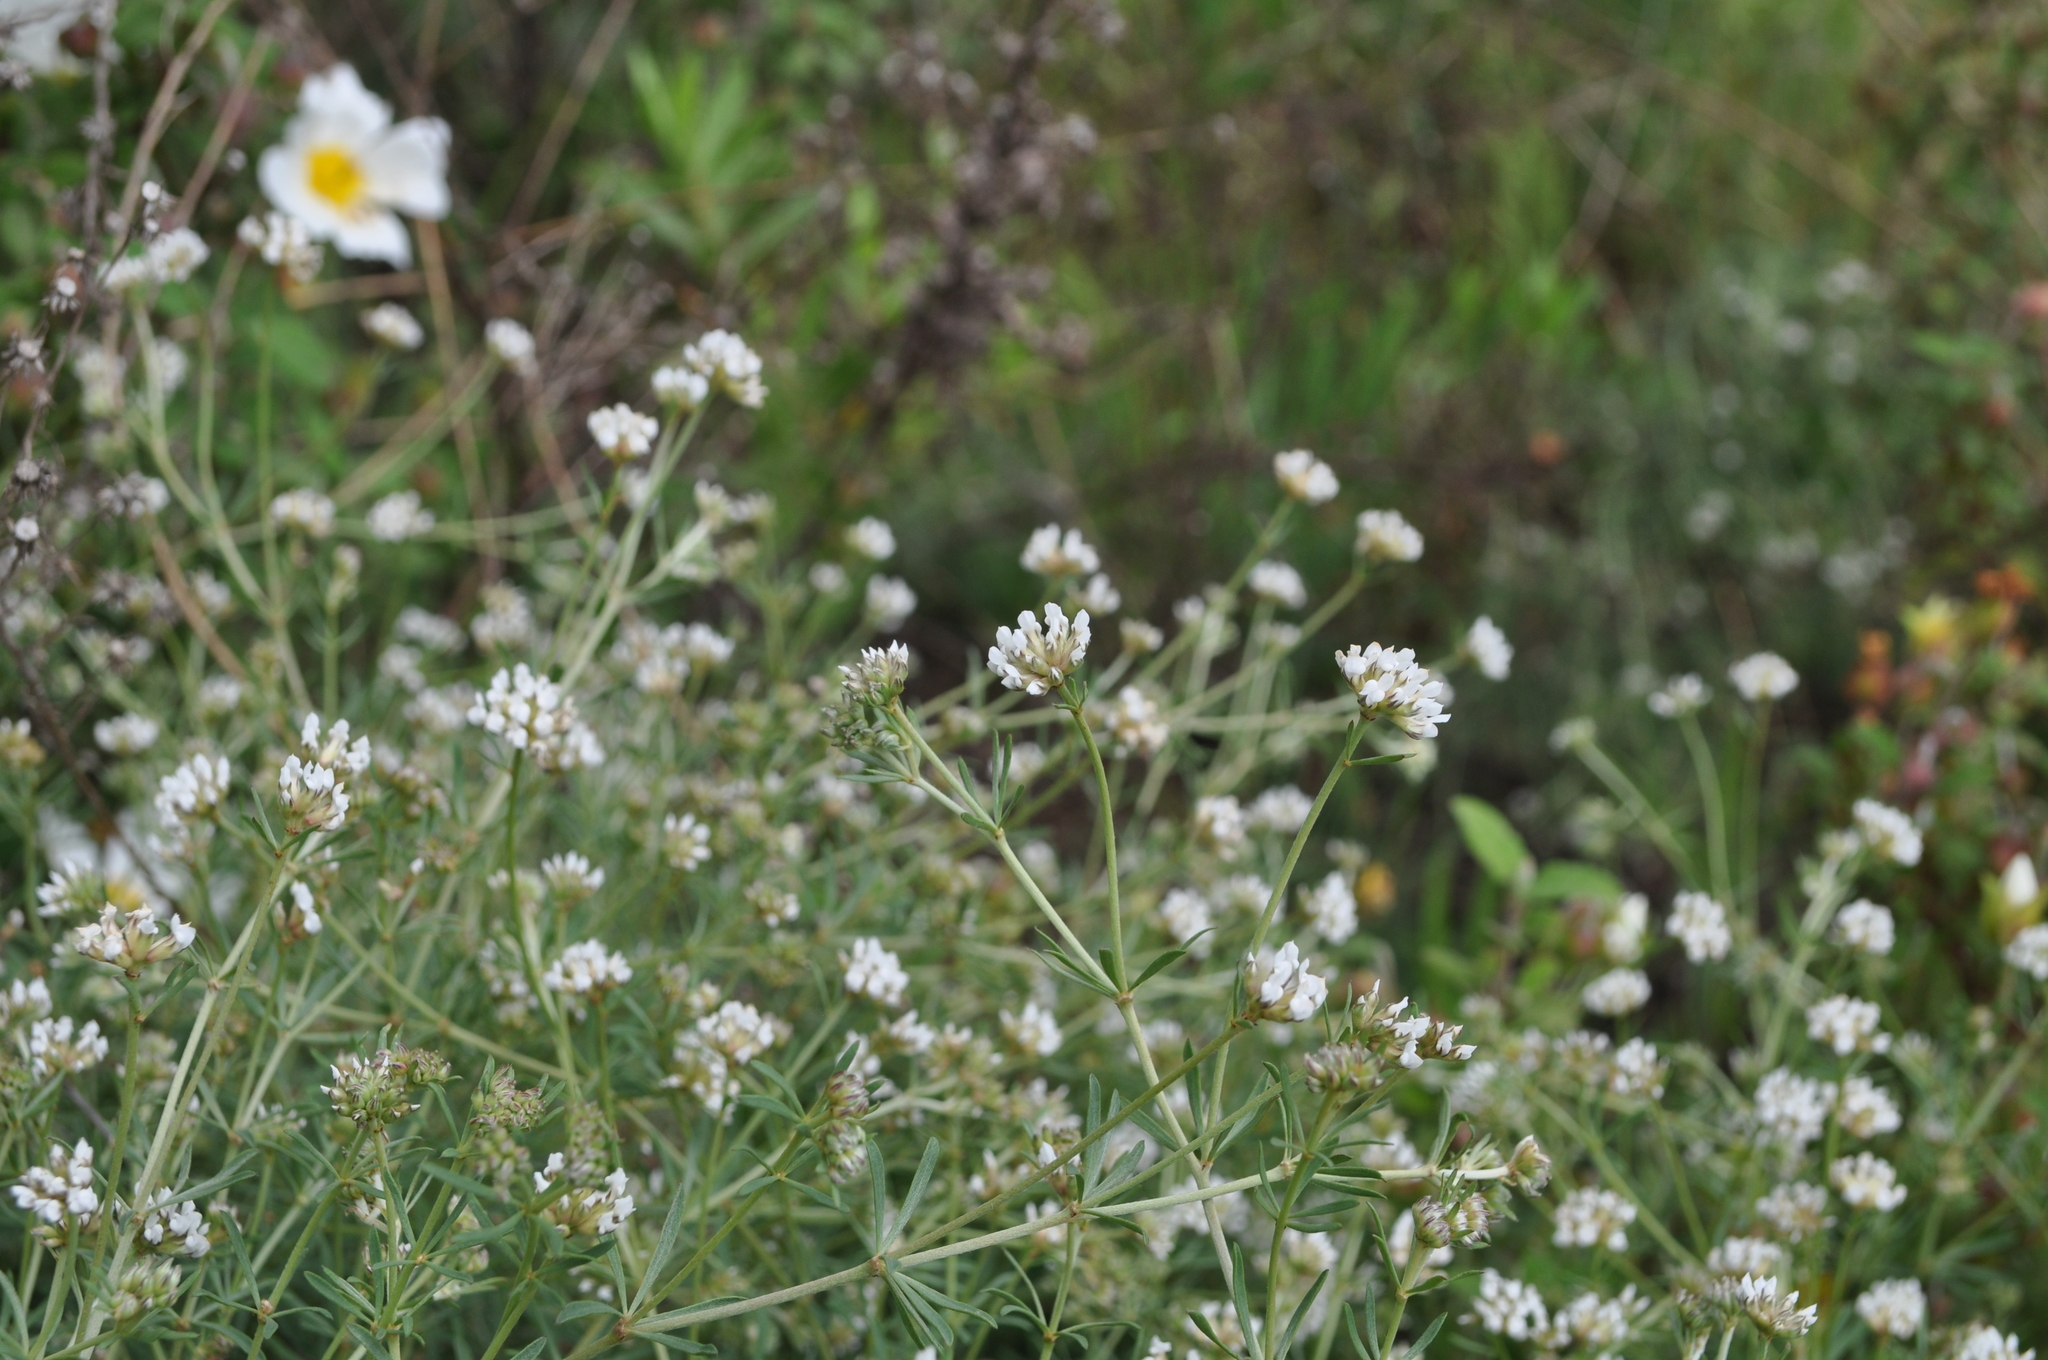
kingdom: Plantae
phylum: Tracheophyta
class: Magnoliopsida
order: Fabales
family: Fabaceae
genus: Lotus
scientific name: Lotus dorycnium
